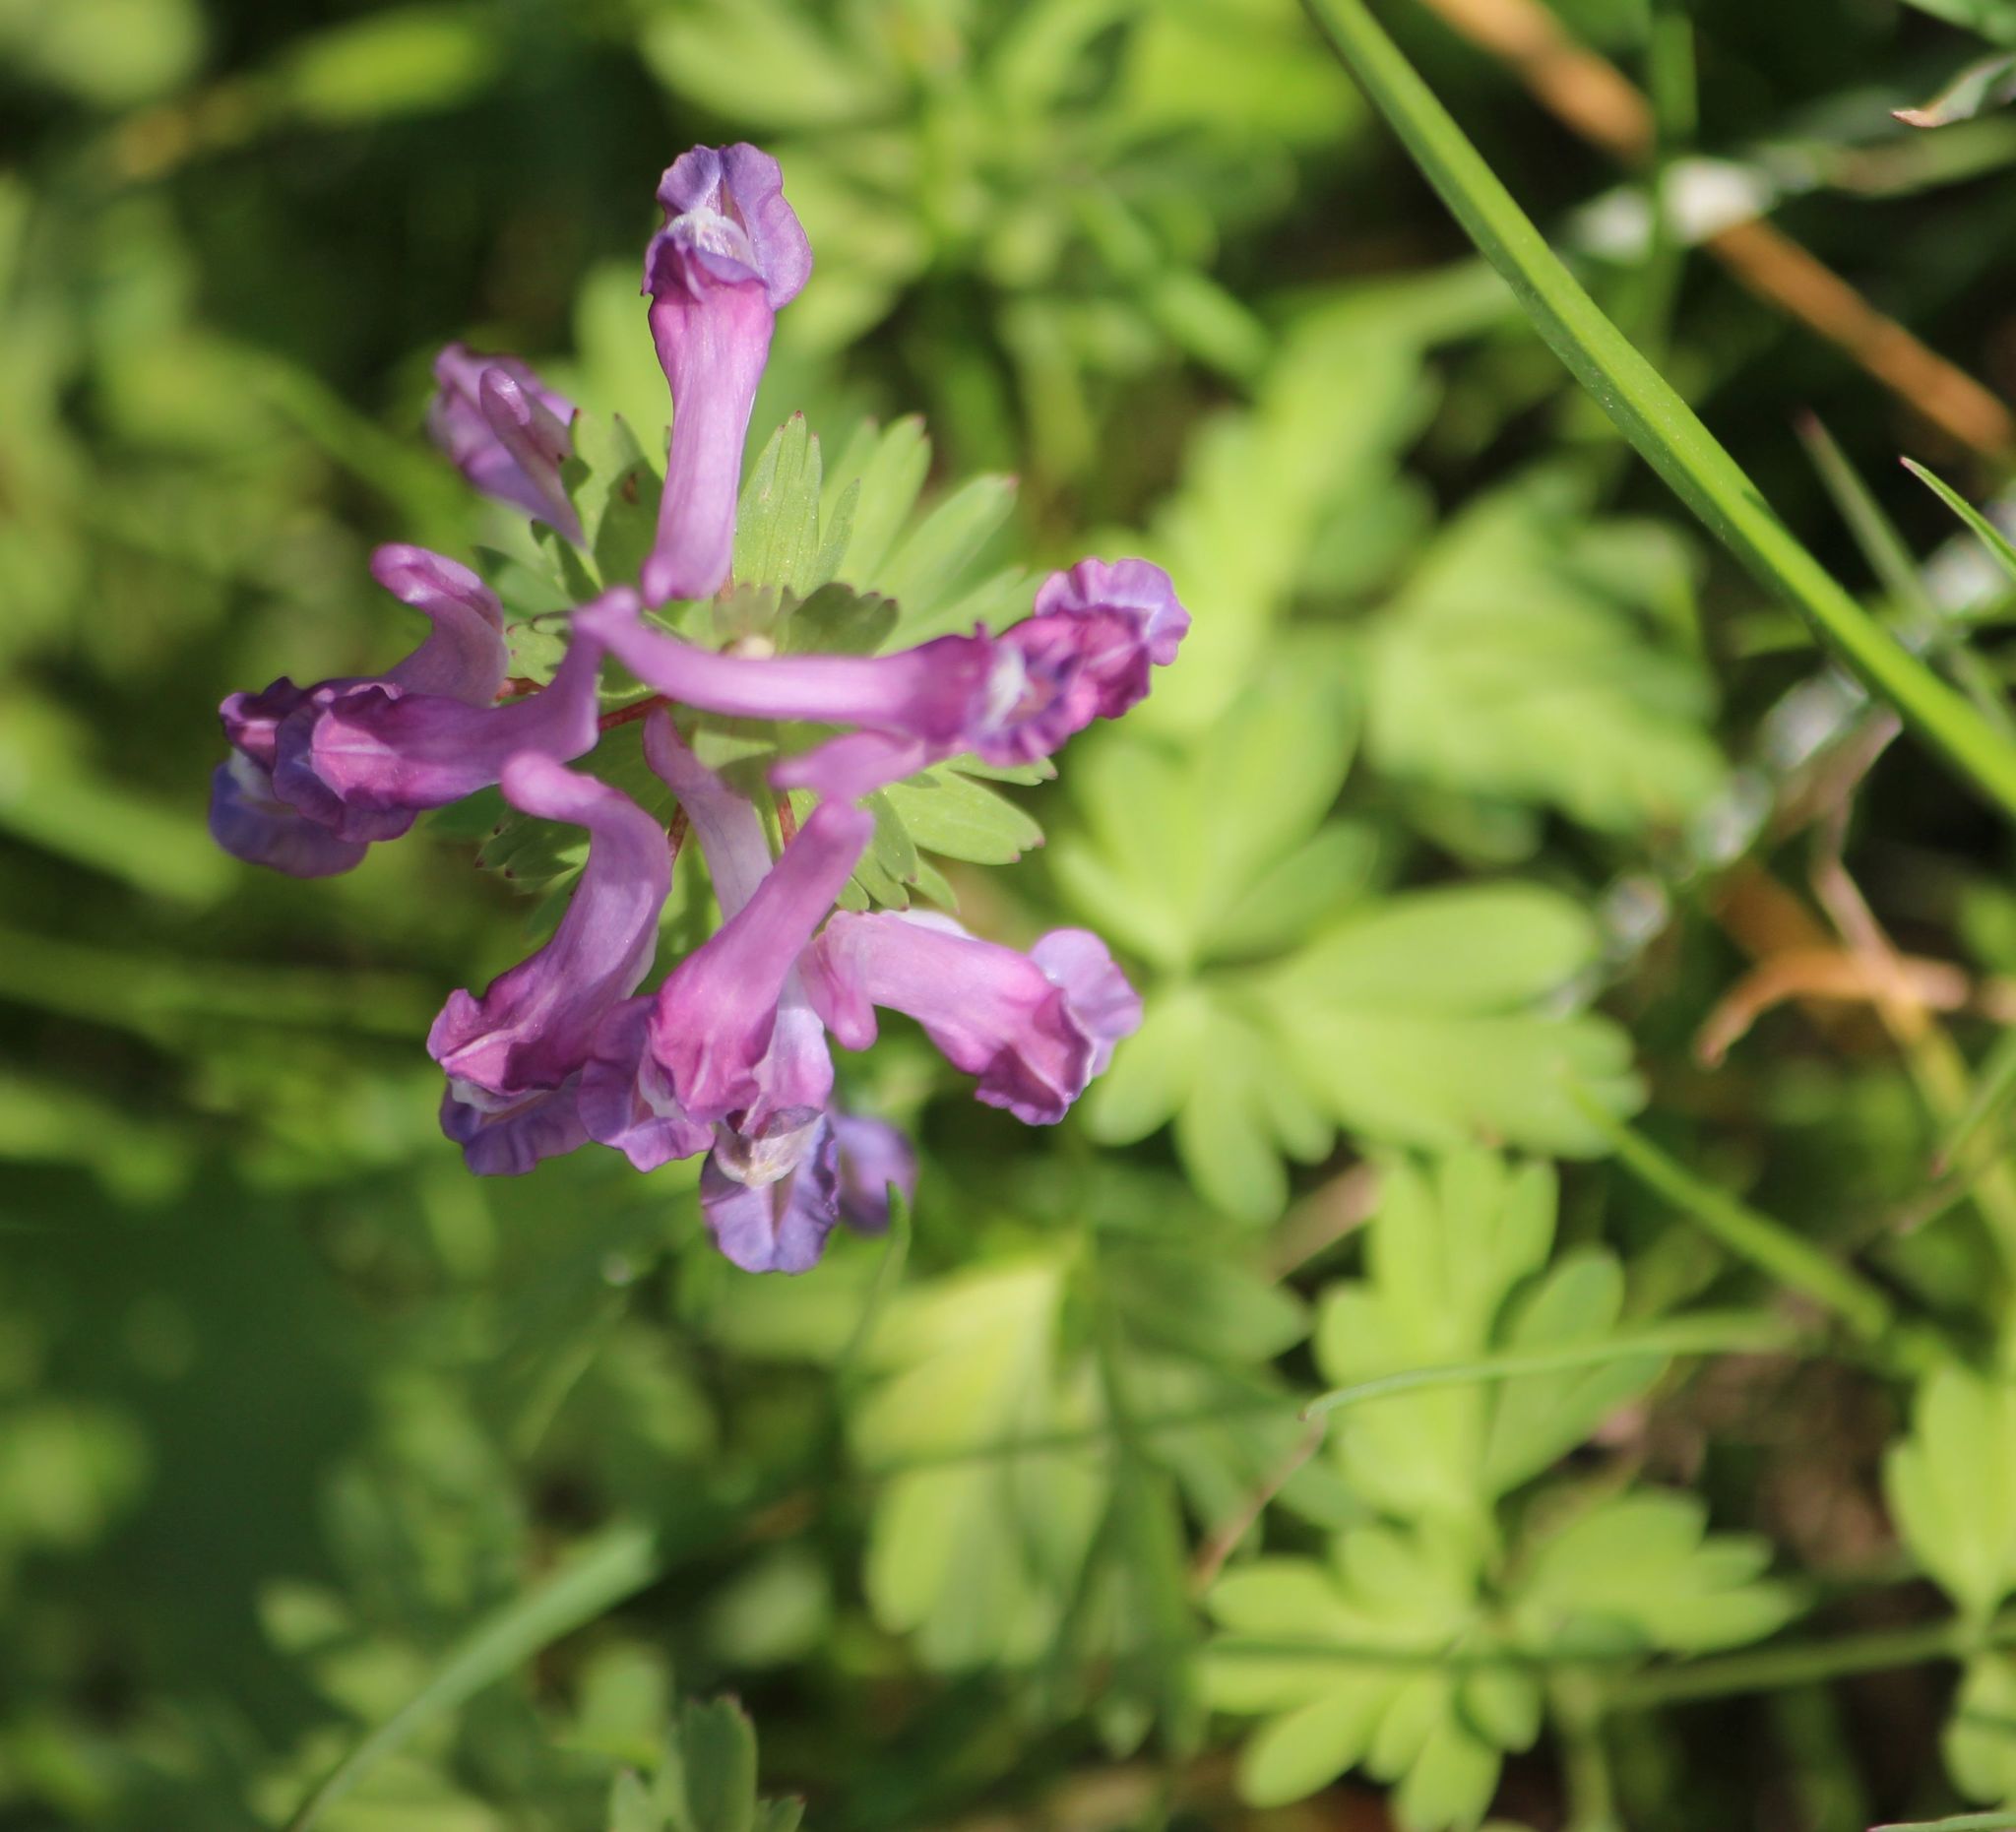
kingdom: Plantae
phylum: Tracheophyta
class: Magnoliopsida
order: Ranunculales
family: Papaveraceae
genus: Corydalis
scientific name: Corydalis solida
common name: Bird-in-a-bush
